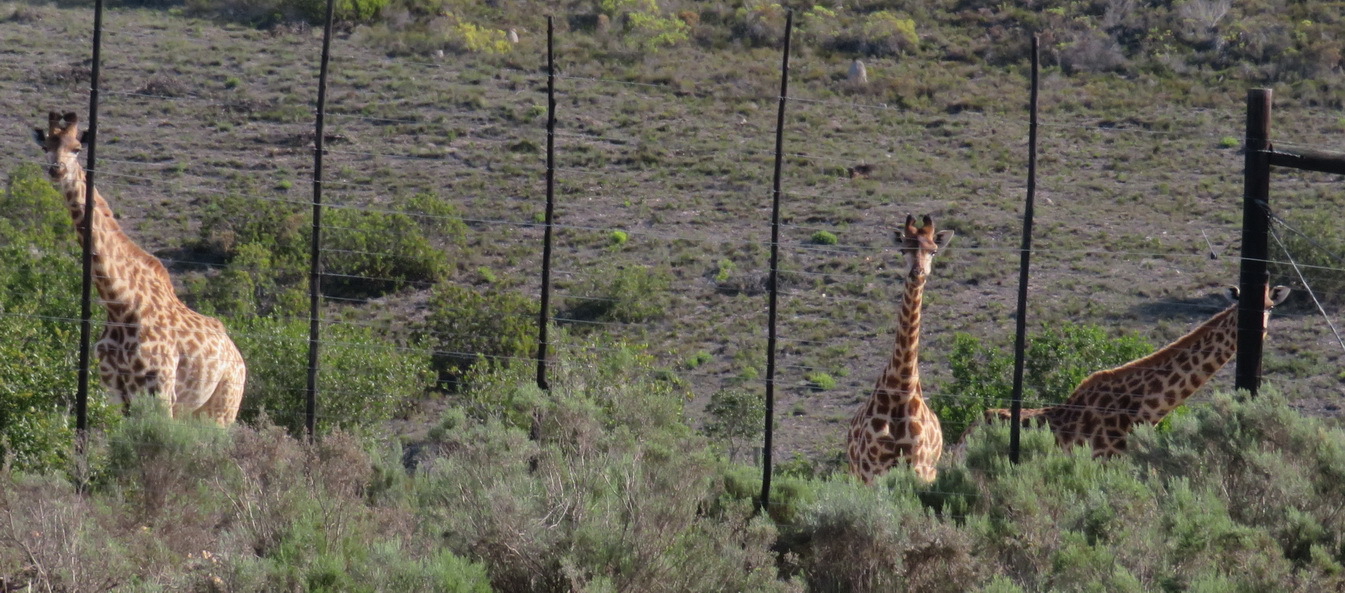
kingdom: Animalia
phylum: Chordata
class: Mammalia
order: Artiodactyla
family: Giraffidae
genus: Giraffa
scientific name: Giraffa giraffa
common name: Southern giraffe
